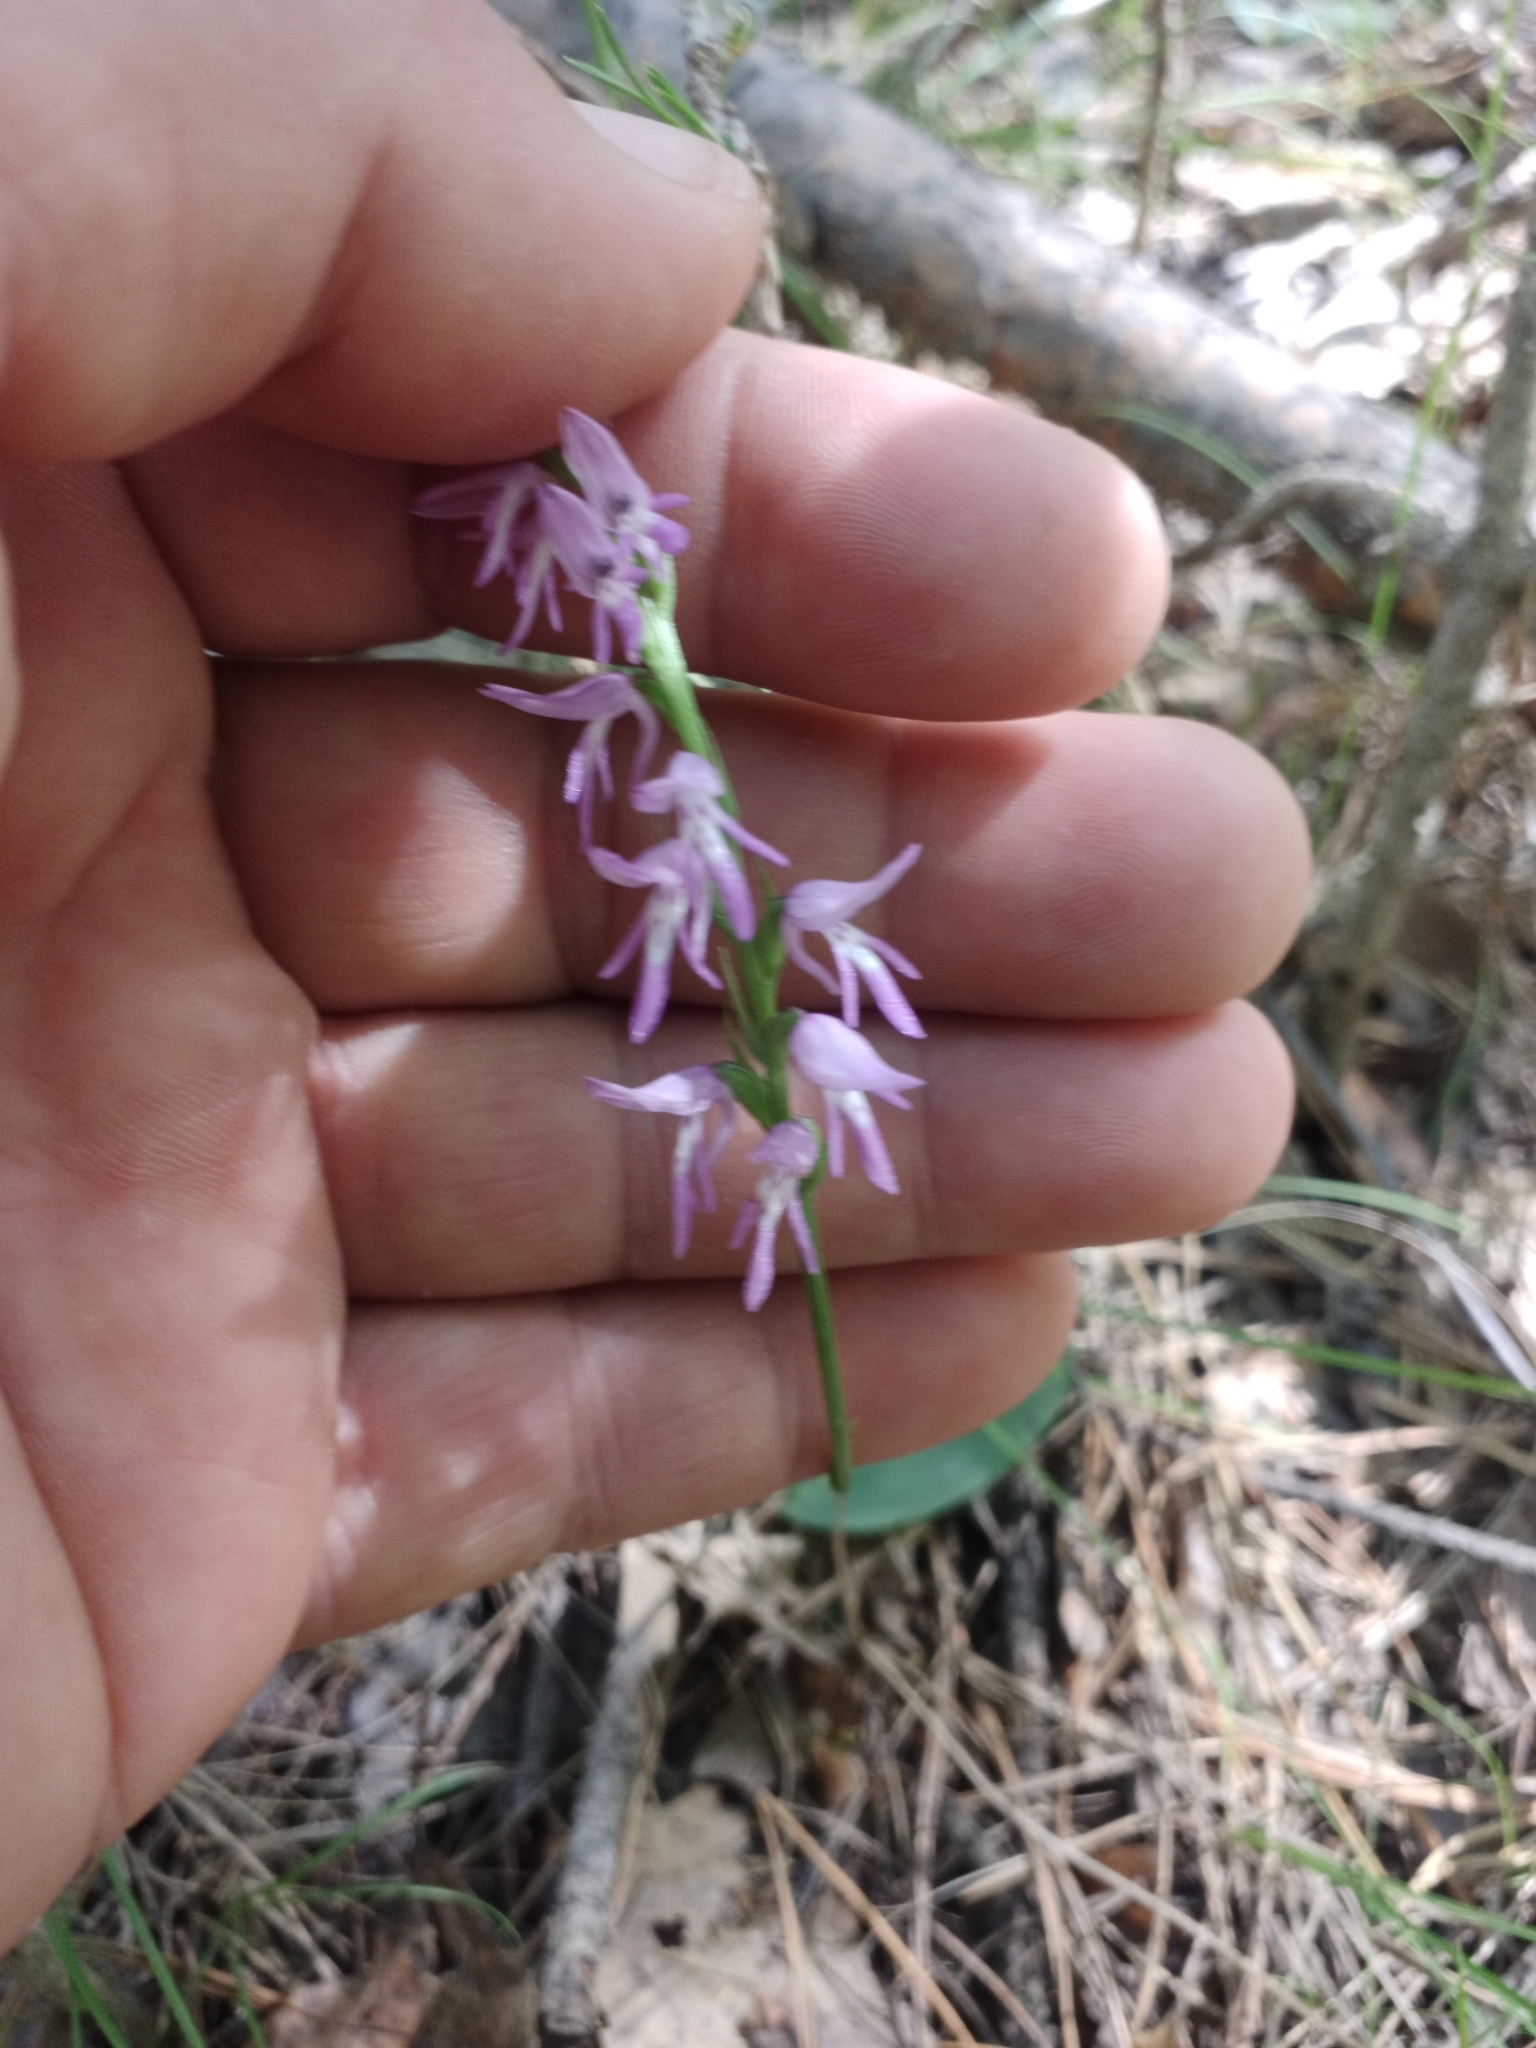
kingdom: Plantae
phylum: Tracheophyta
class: Liliopsida
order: Asparagales
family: Orchidaceae
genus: Hemipilia
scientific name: Hemipilia cucullata
